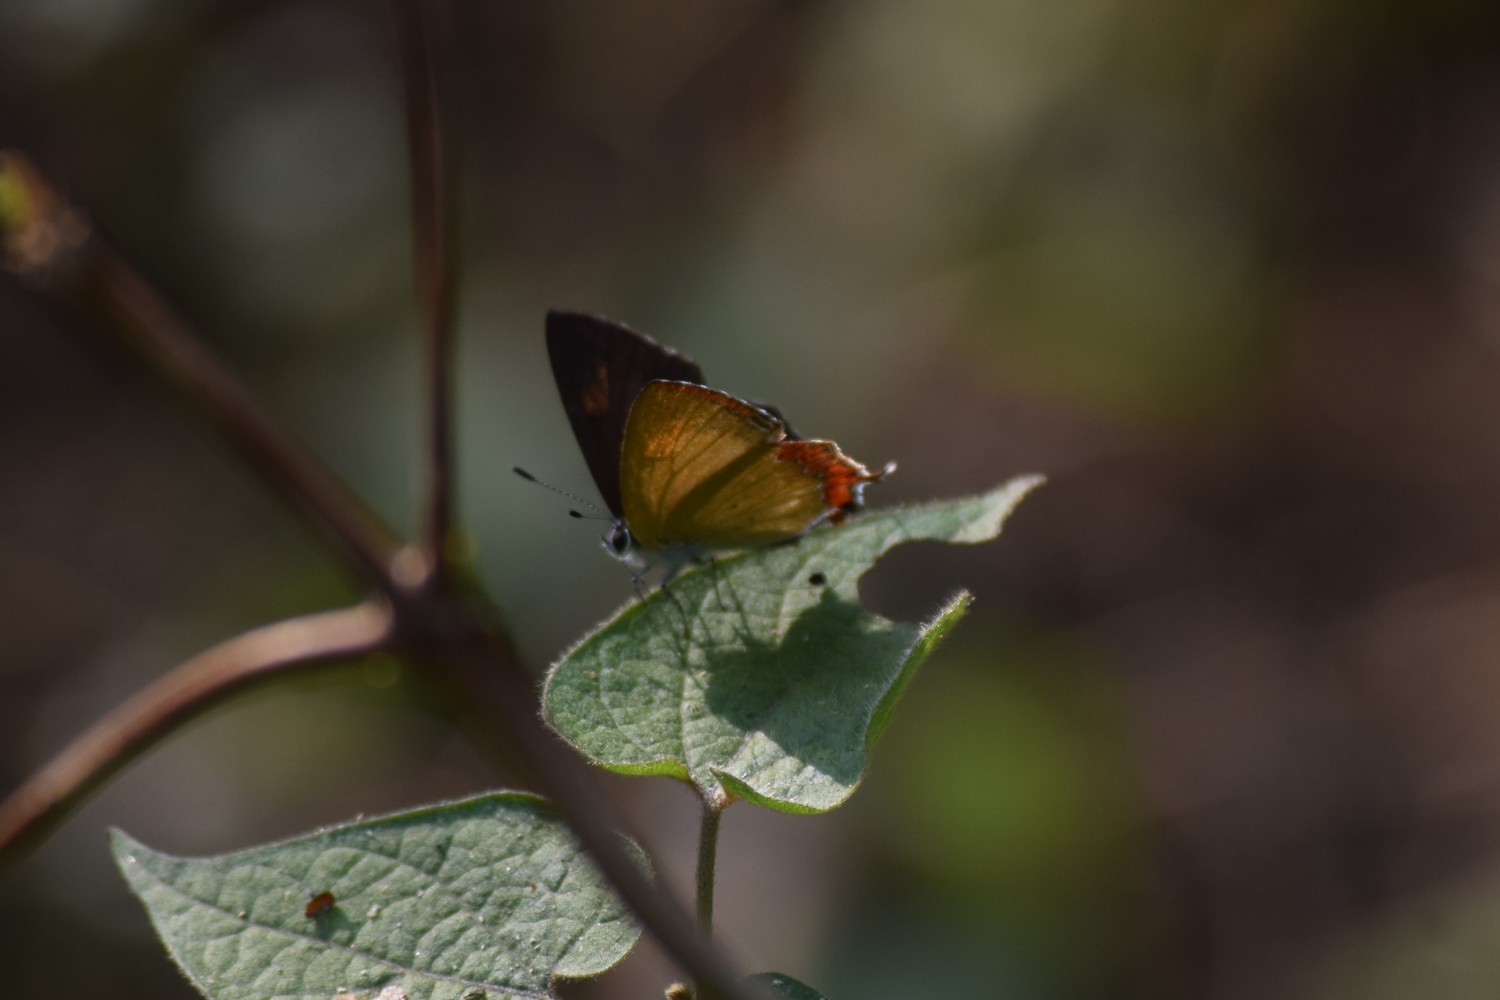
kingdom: Animalia
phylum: Arthropoda
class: Insecta
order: Lepidoptera
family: Lycaenidae
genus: Heliophorus
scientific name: Heliophorus epicles
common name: Purple sapphire
